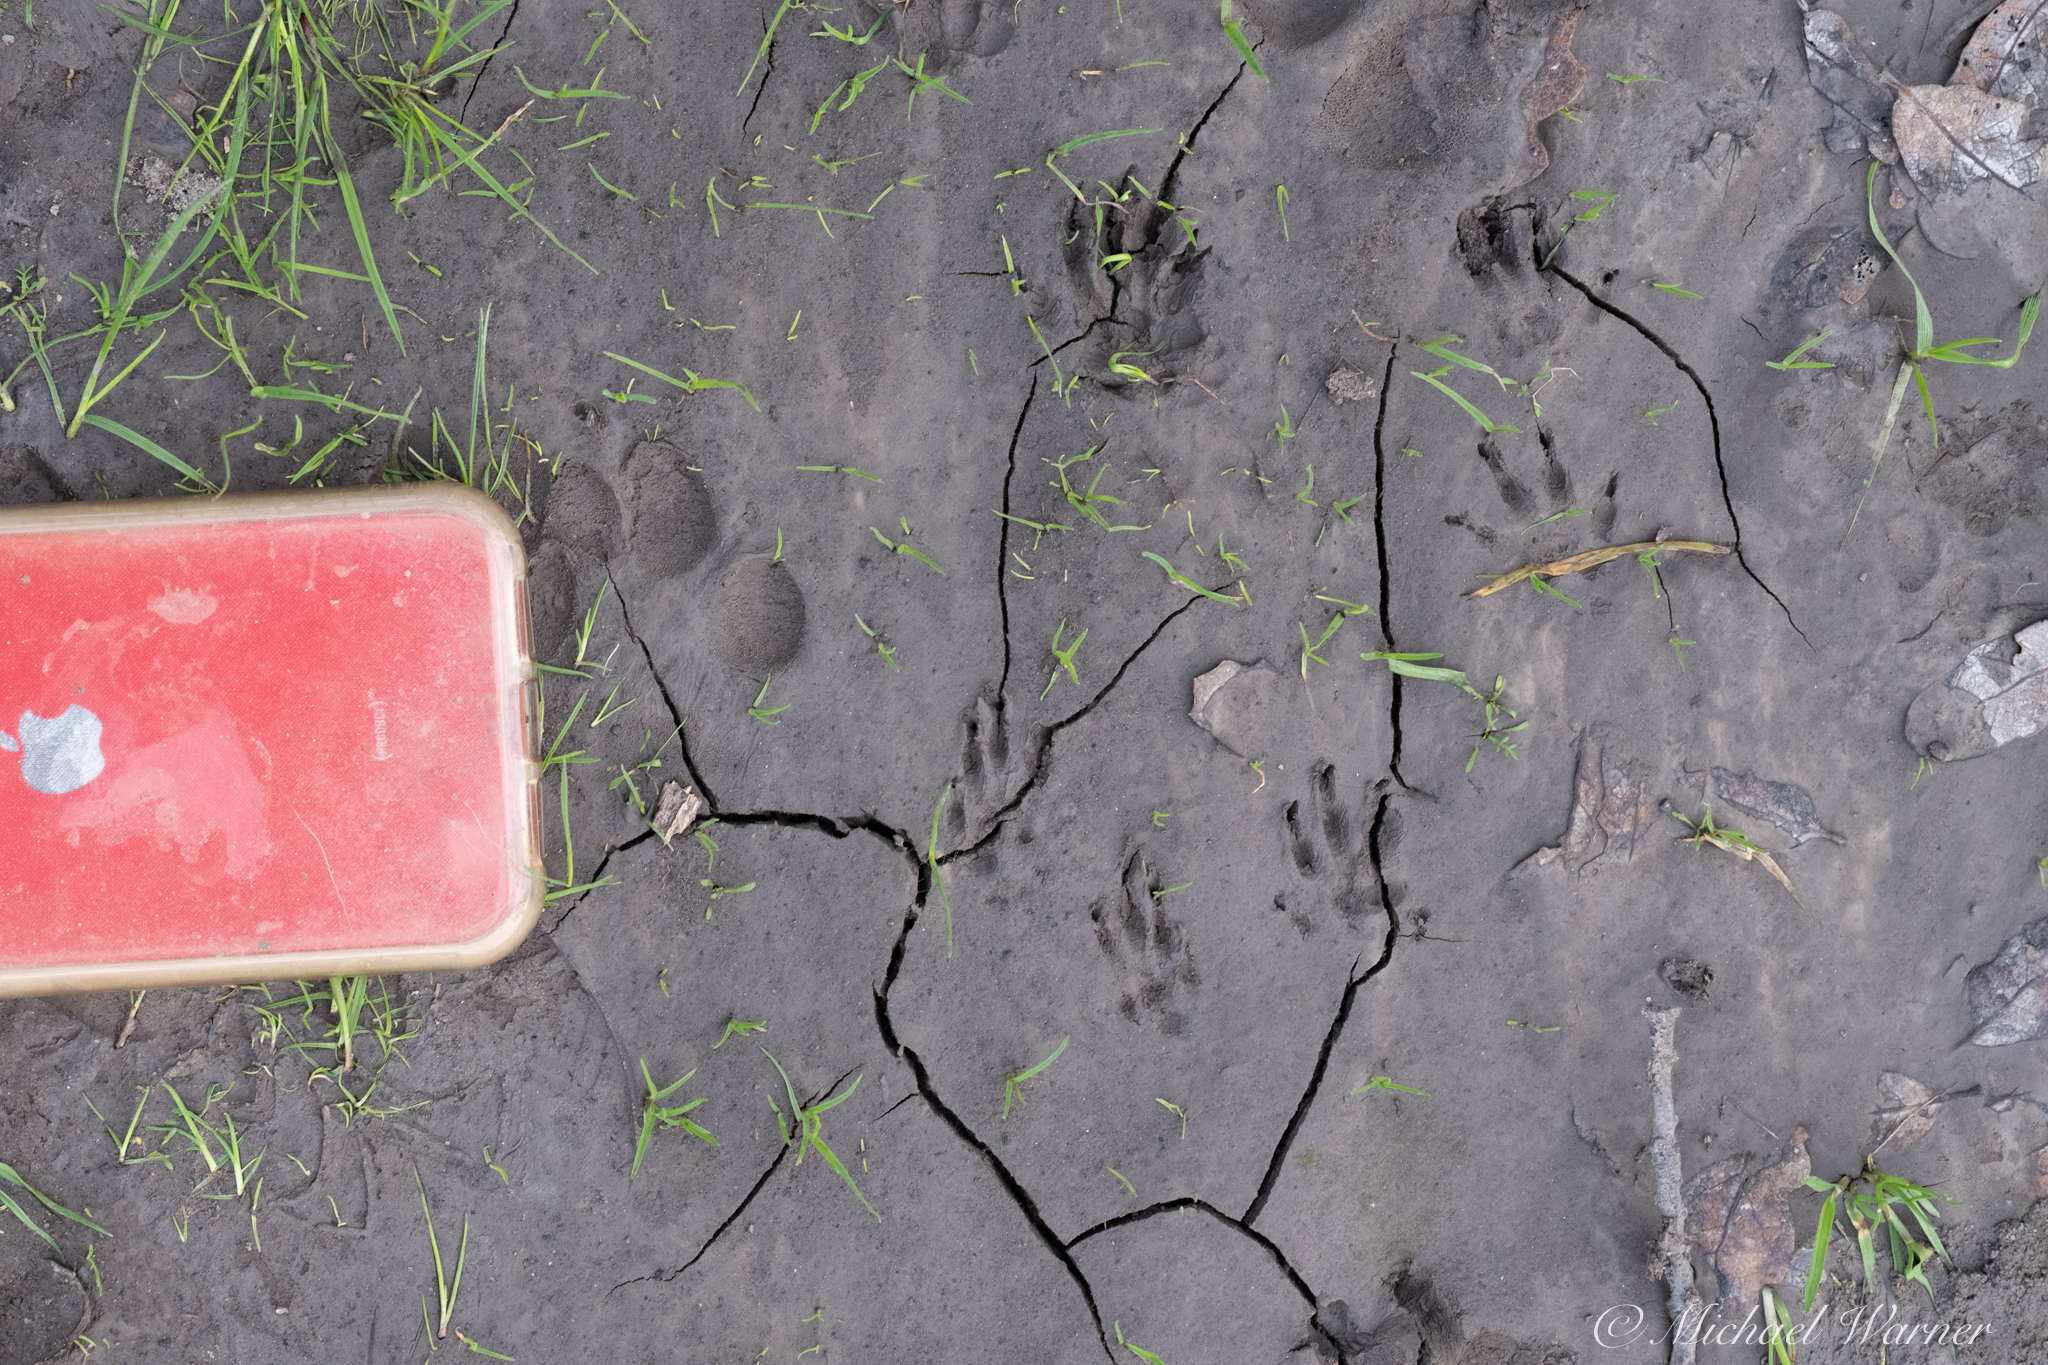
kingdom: Animalia
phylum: Chordata
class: Mammalia
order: Rodentia
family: Sciuridae
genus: Otospermophilus
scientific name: Otospermophilus beecheyi
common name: California ground squirrel
